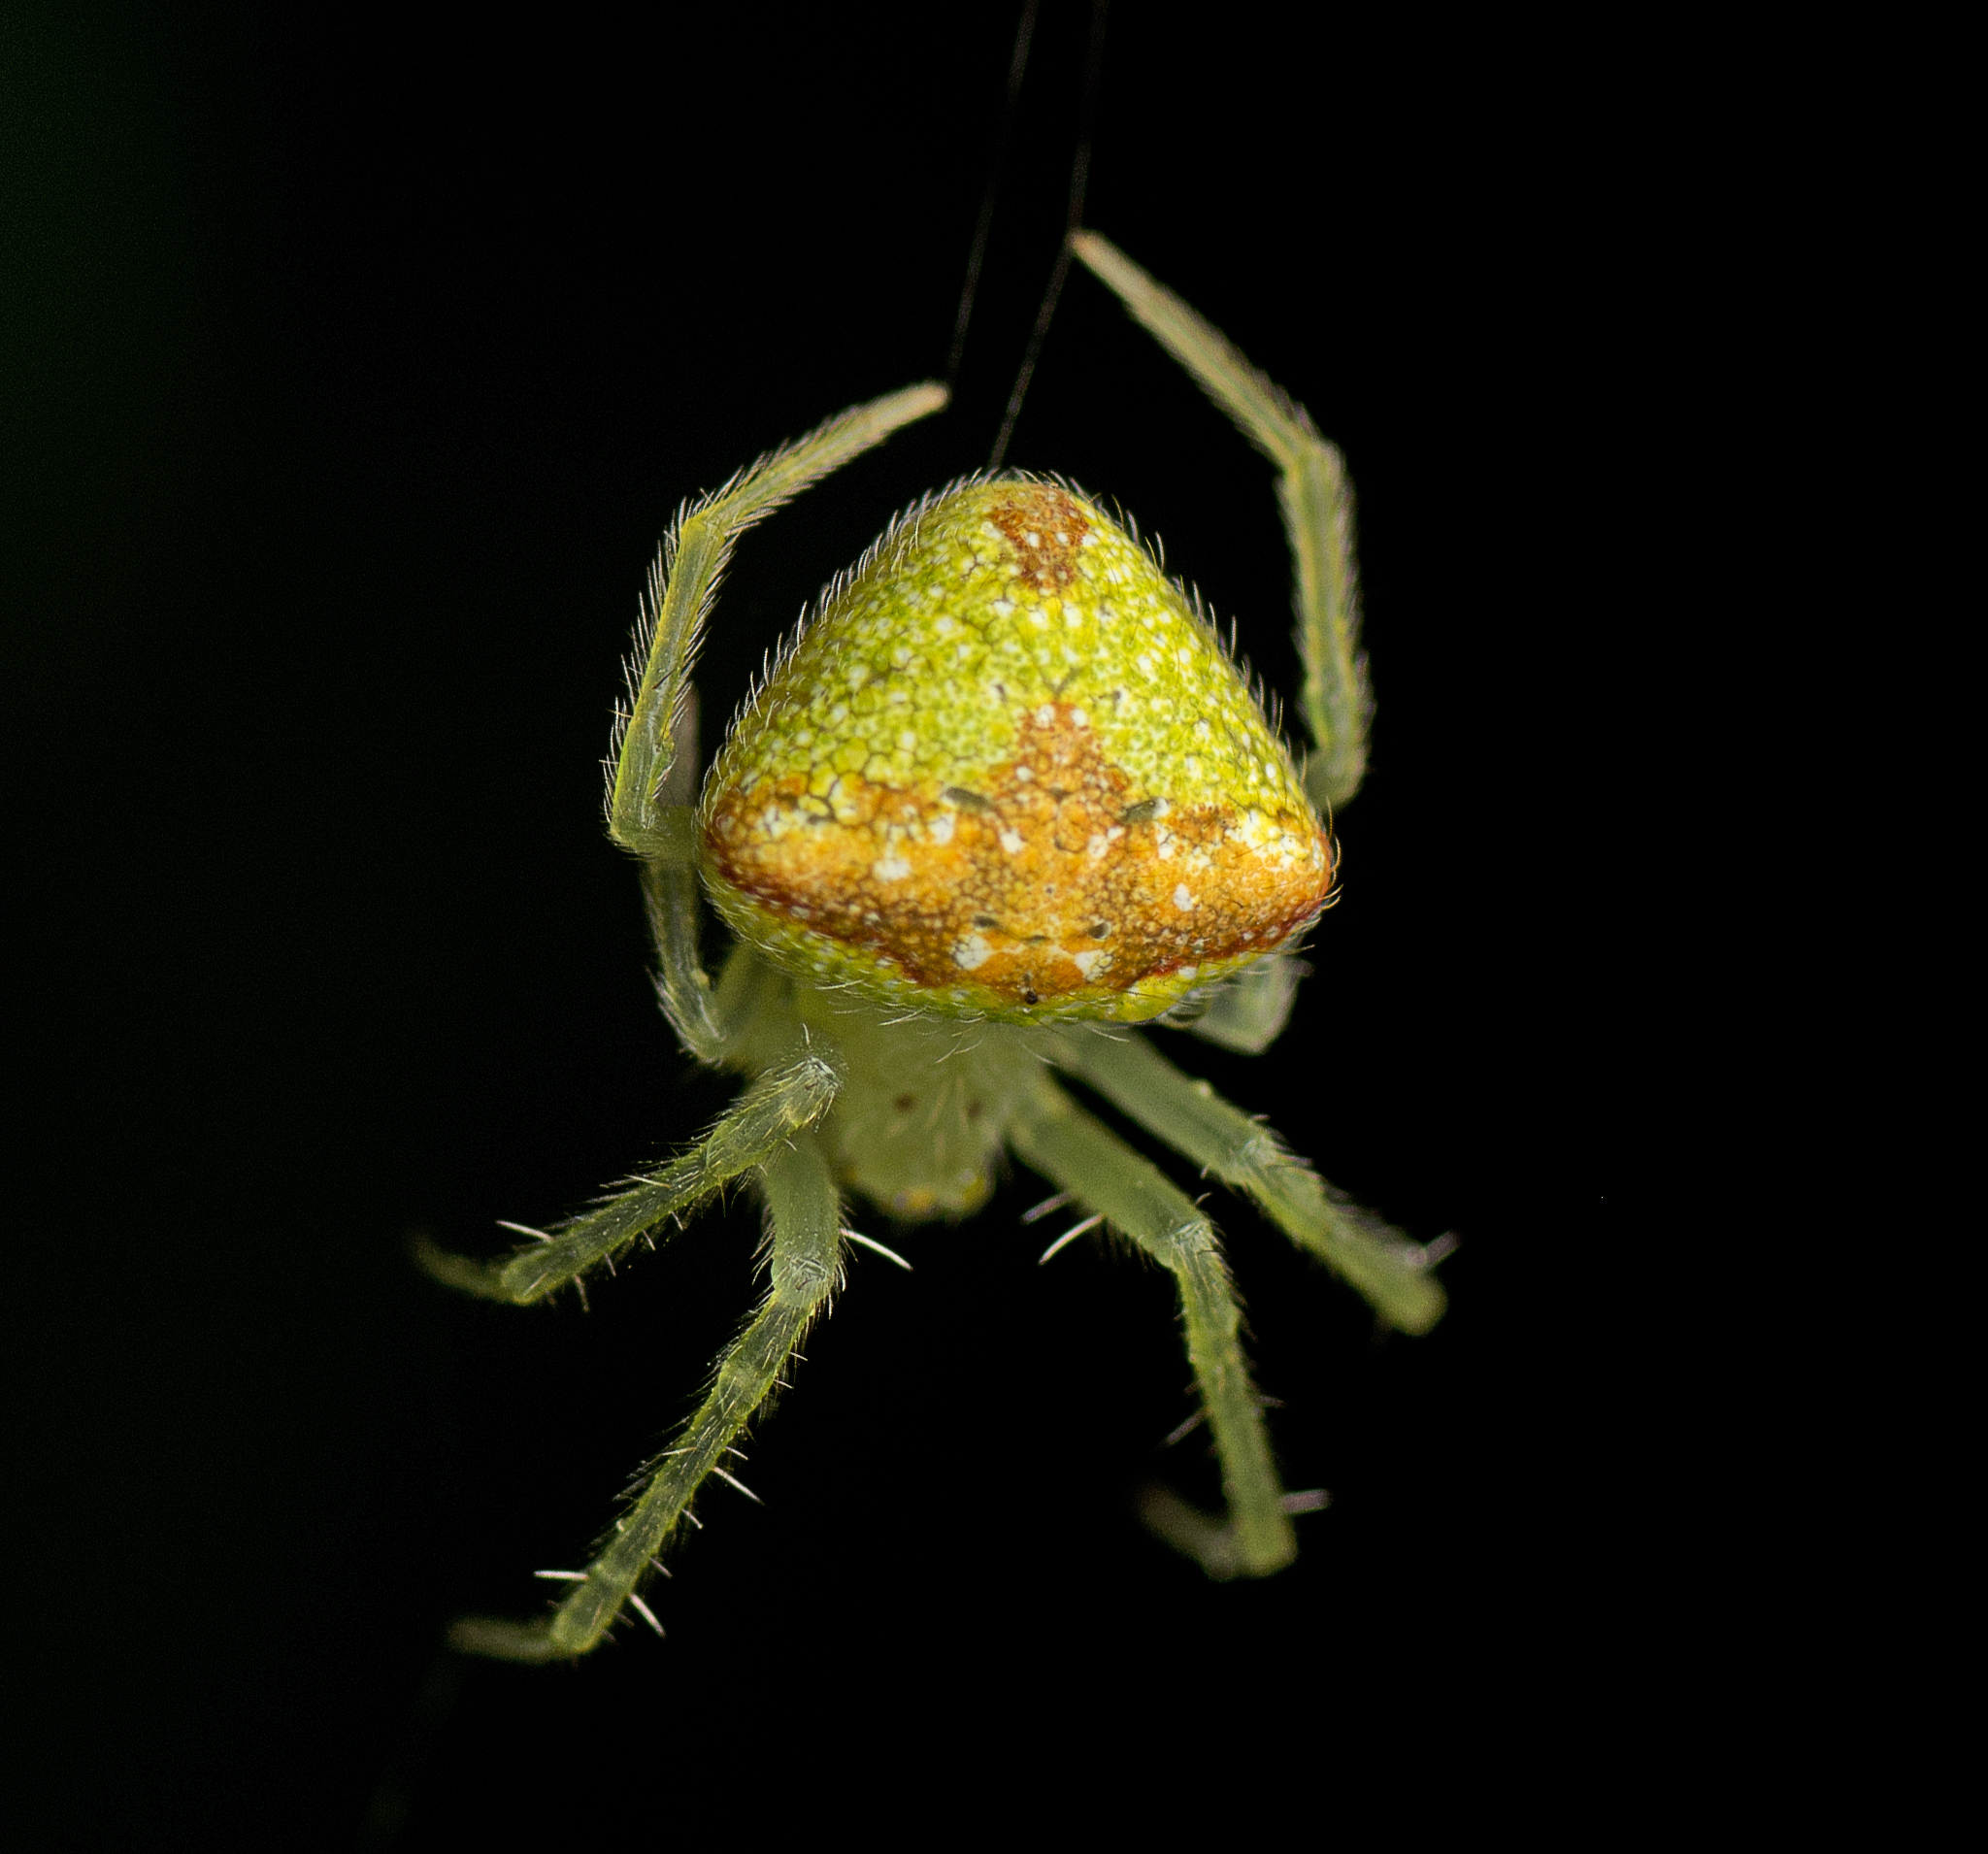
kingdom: Animalia
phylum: Arthropoda
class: Arachnida
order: Araneae
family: Araneidae
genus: Araneus
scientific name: Araneus circulissparsus
